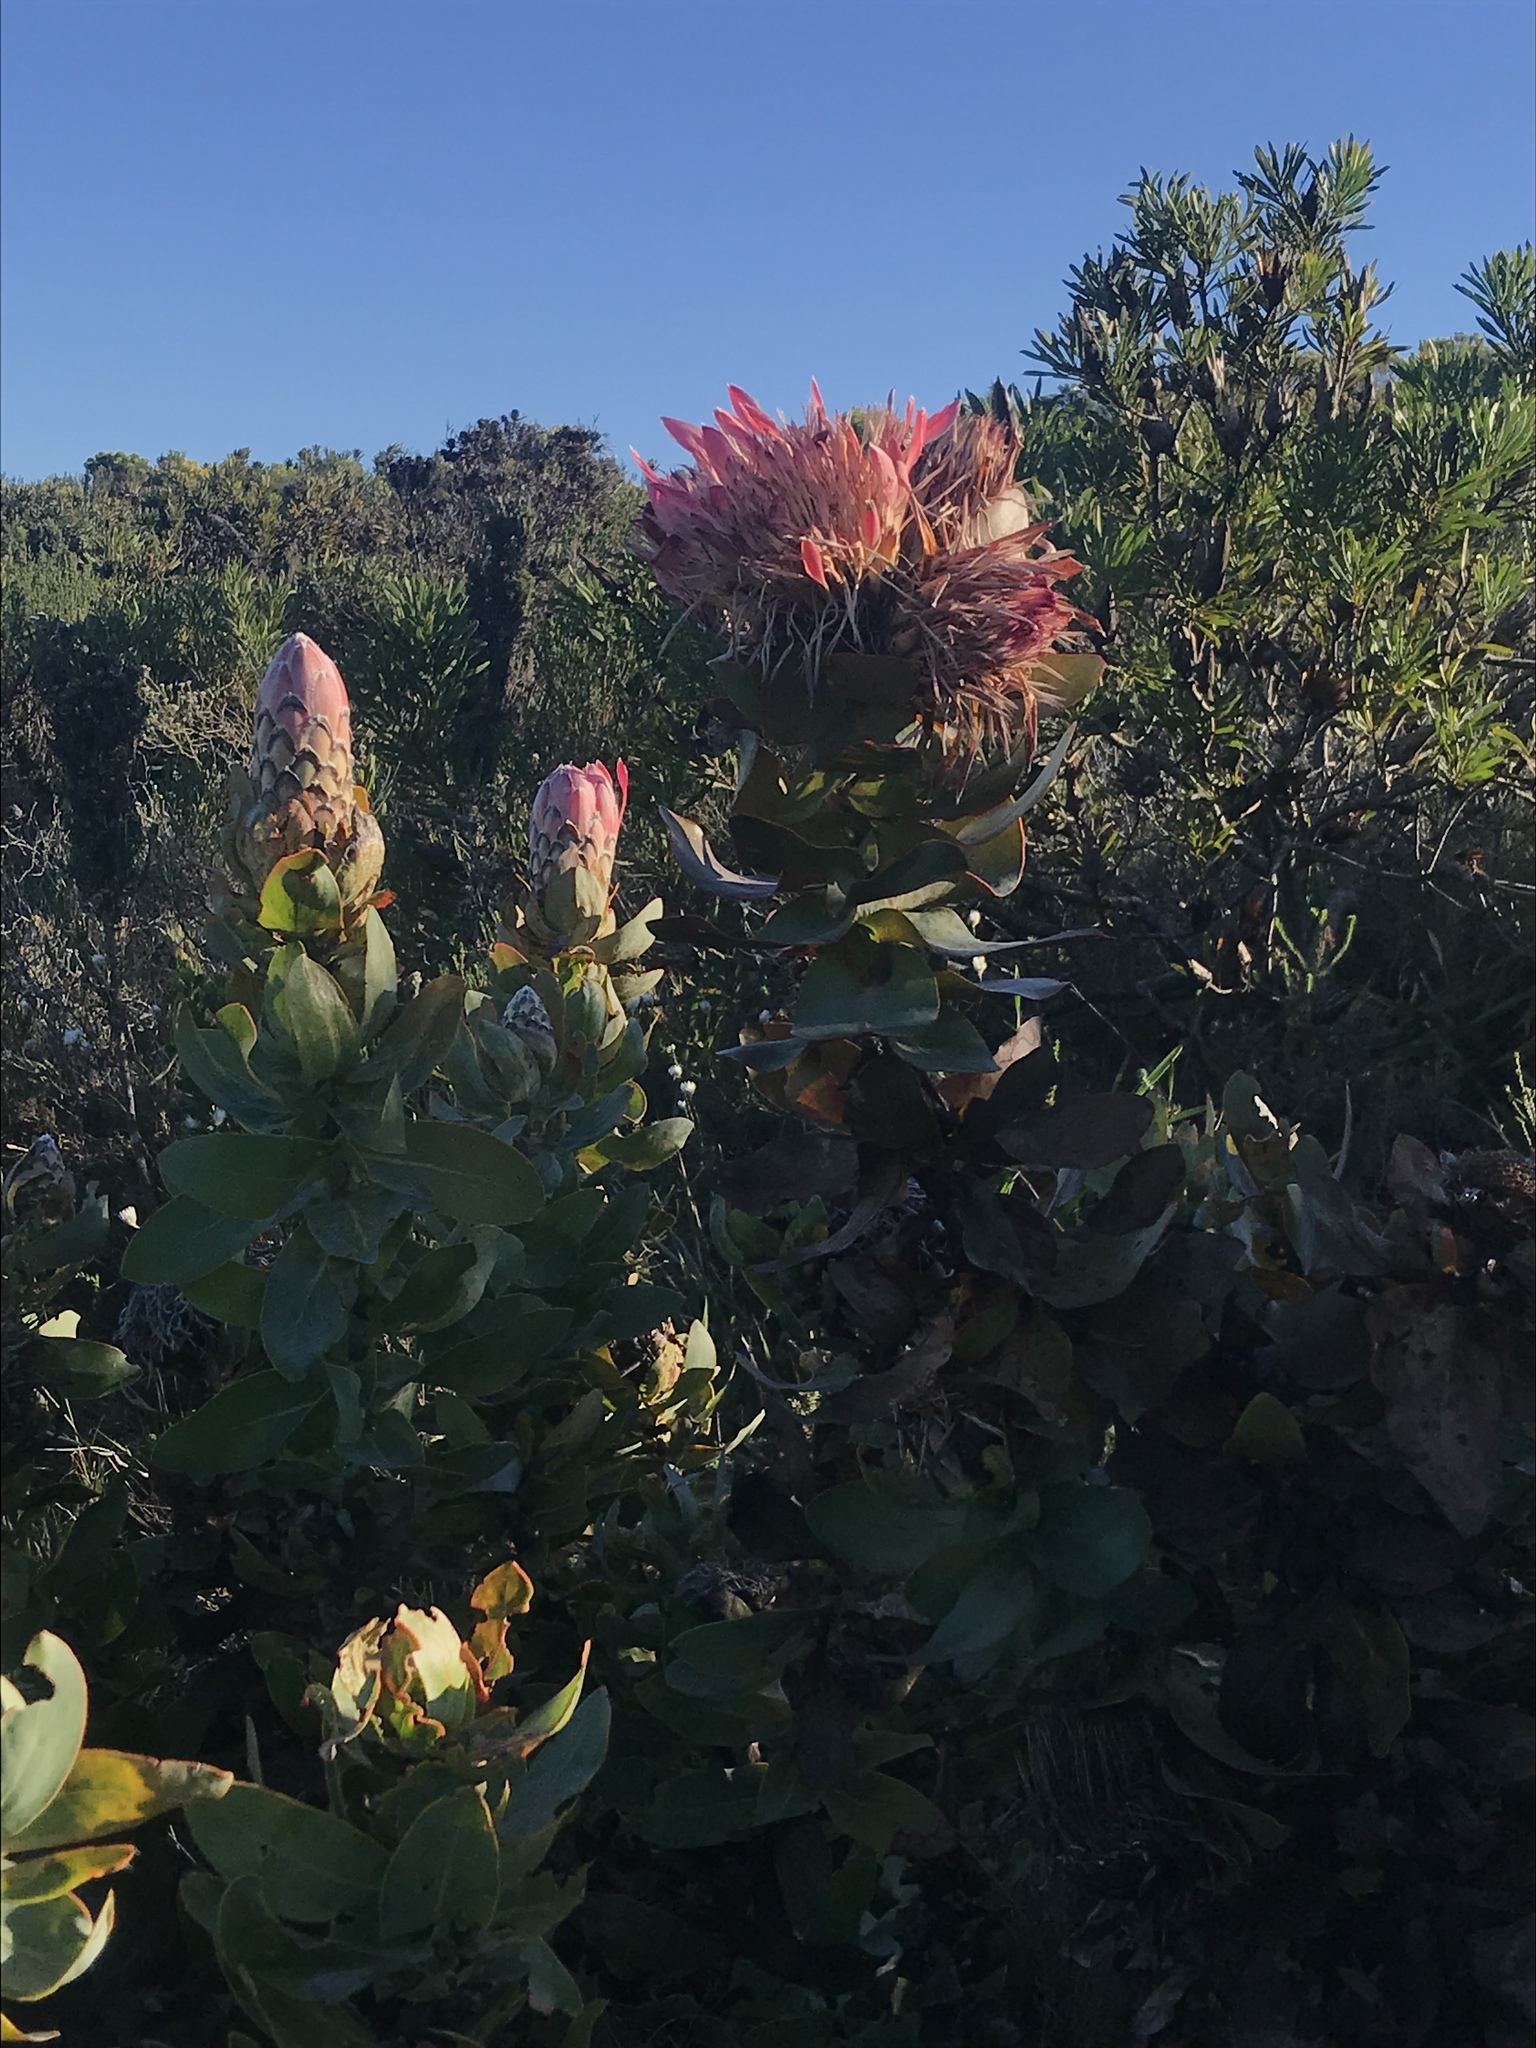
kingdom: Plantae
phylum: Tracheophyta
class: Magnoliopsida
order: Proteales
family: Proteaceae
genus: Protea
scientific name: Protea eximia
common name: Broad-leaved sugarbush
